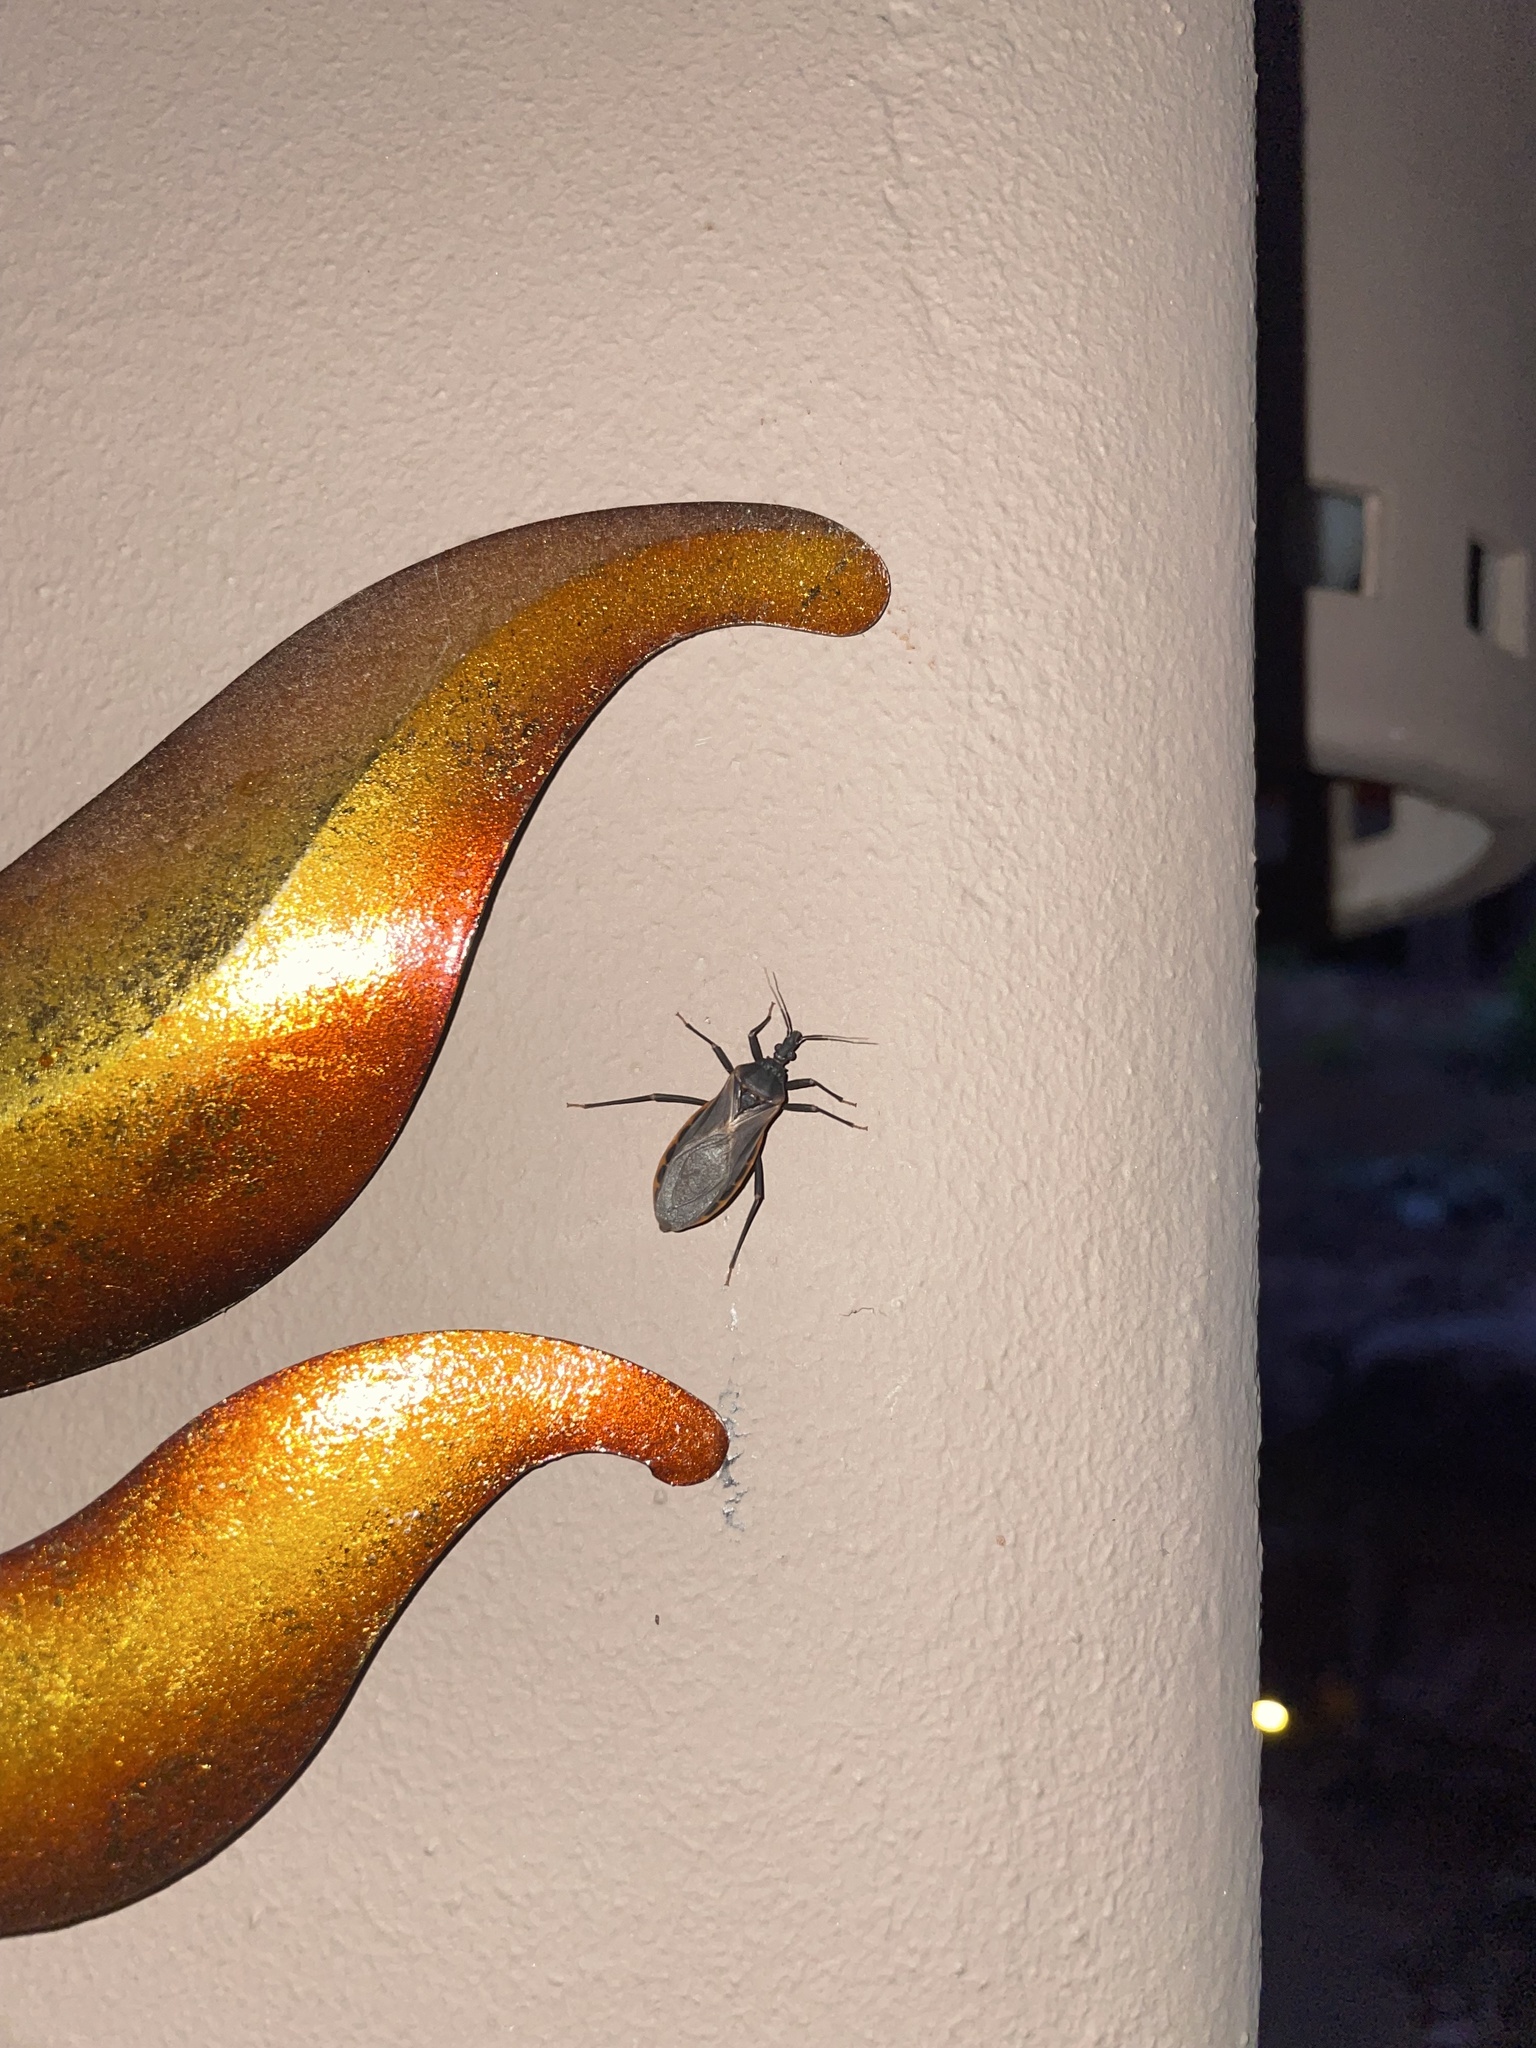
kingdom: Animalia
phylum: Arthropoda
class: Insecta
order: Hemiptera
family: Reduviidae
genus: Triatoma
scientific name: Triatoma rubida
